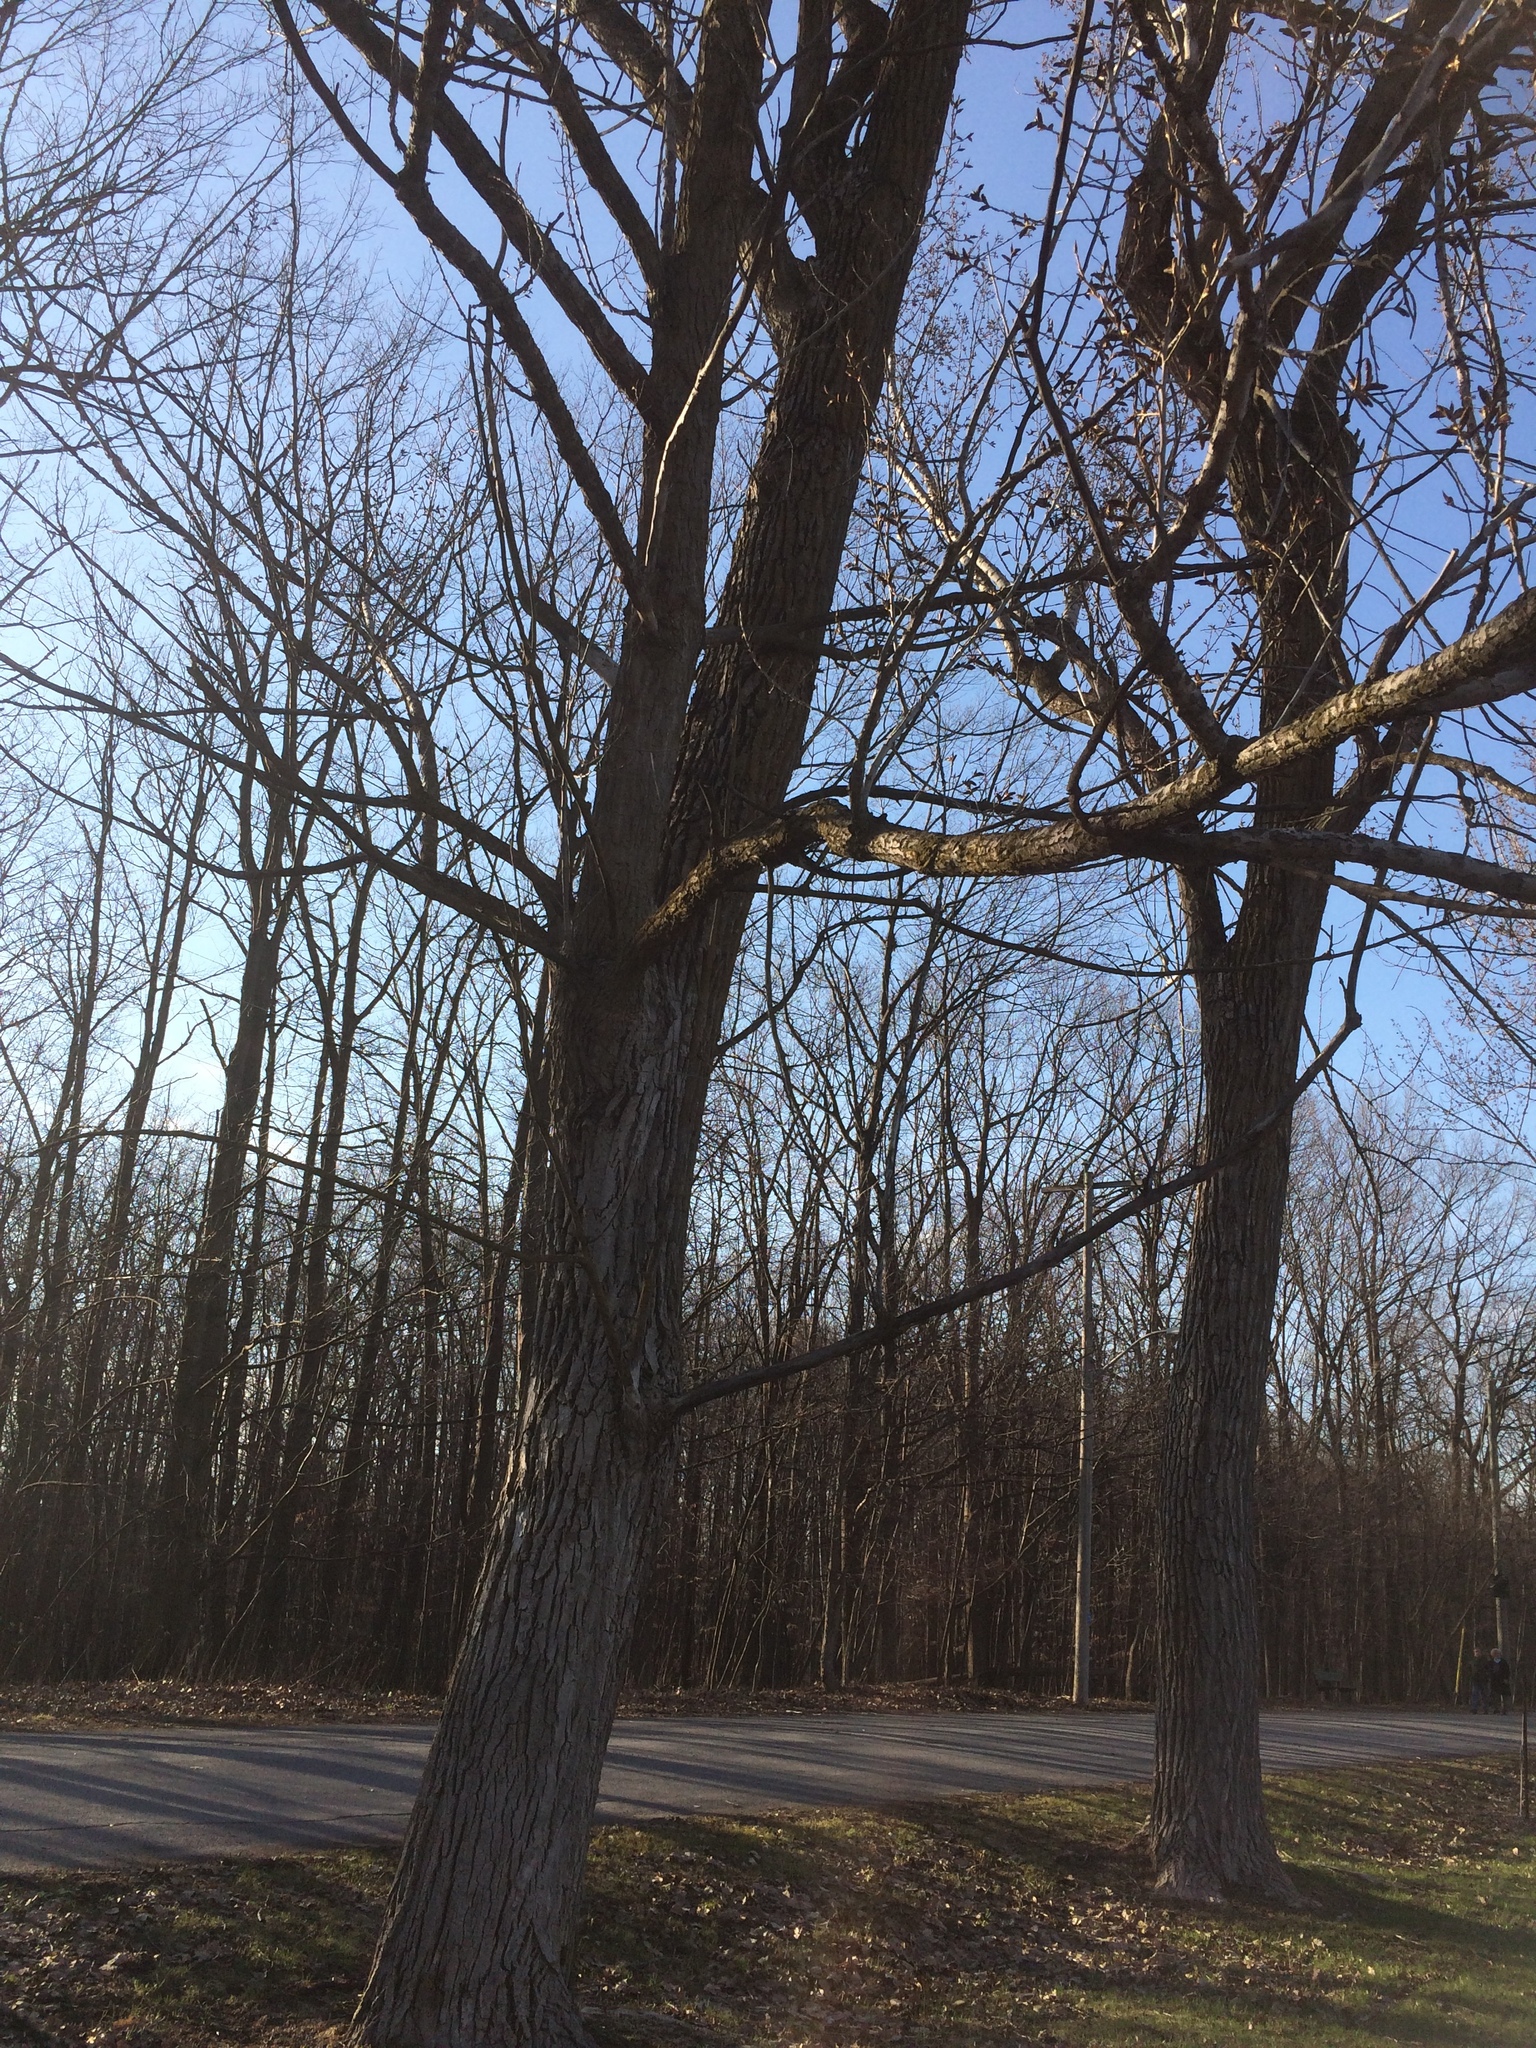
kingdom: Plantae
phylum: Tracheophyta
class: Magnoliopsida
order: Malpighiales
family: Salicaceae
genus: Populus
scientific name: Populus deltoides
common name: Eastern cottonwood
